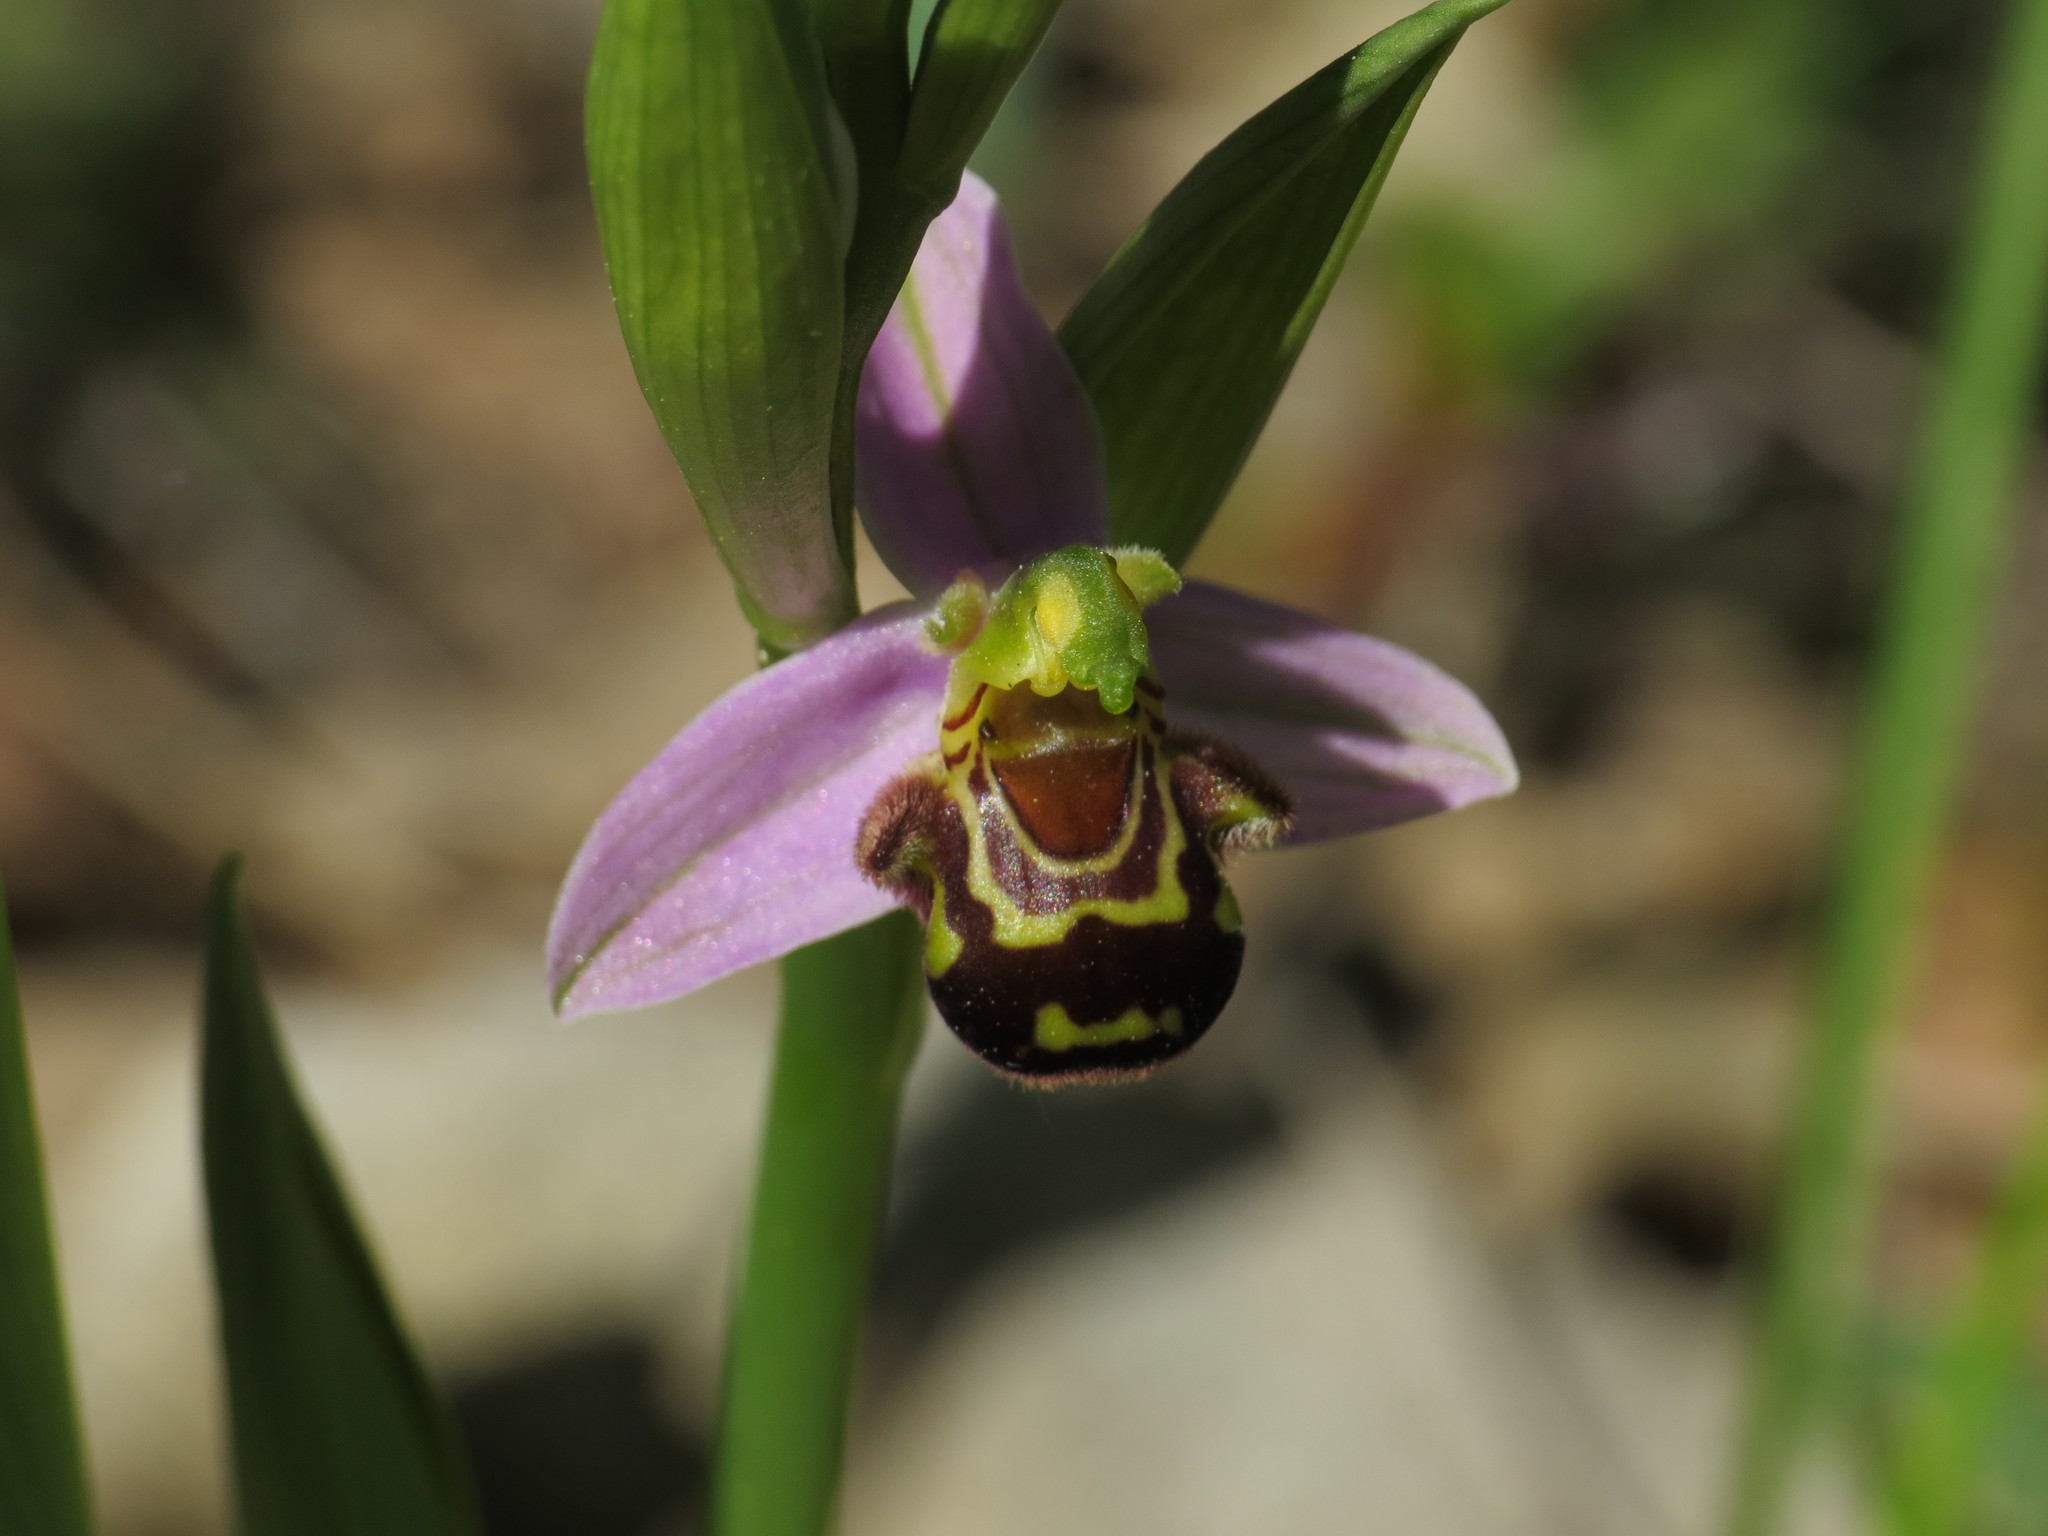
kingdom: Plantae
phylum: Tracheophyta
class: Liliopsida
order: Asparagales
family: Orchidaceae
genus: Ophrys
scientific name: Ophrys apifera
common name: Bee orchid
